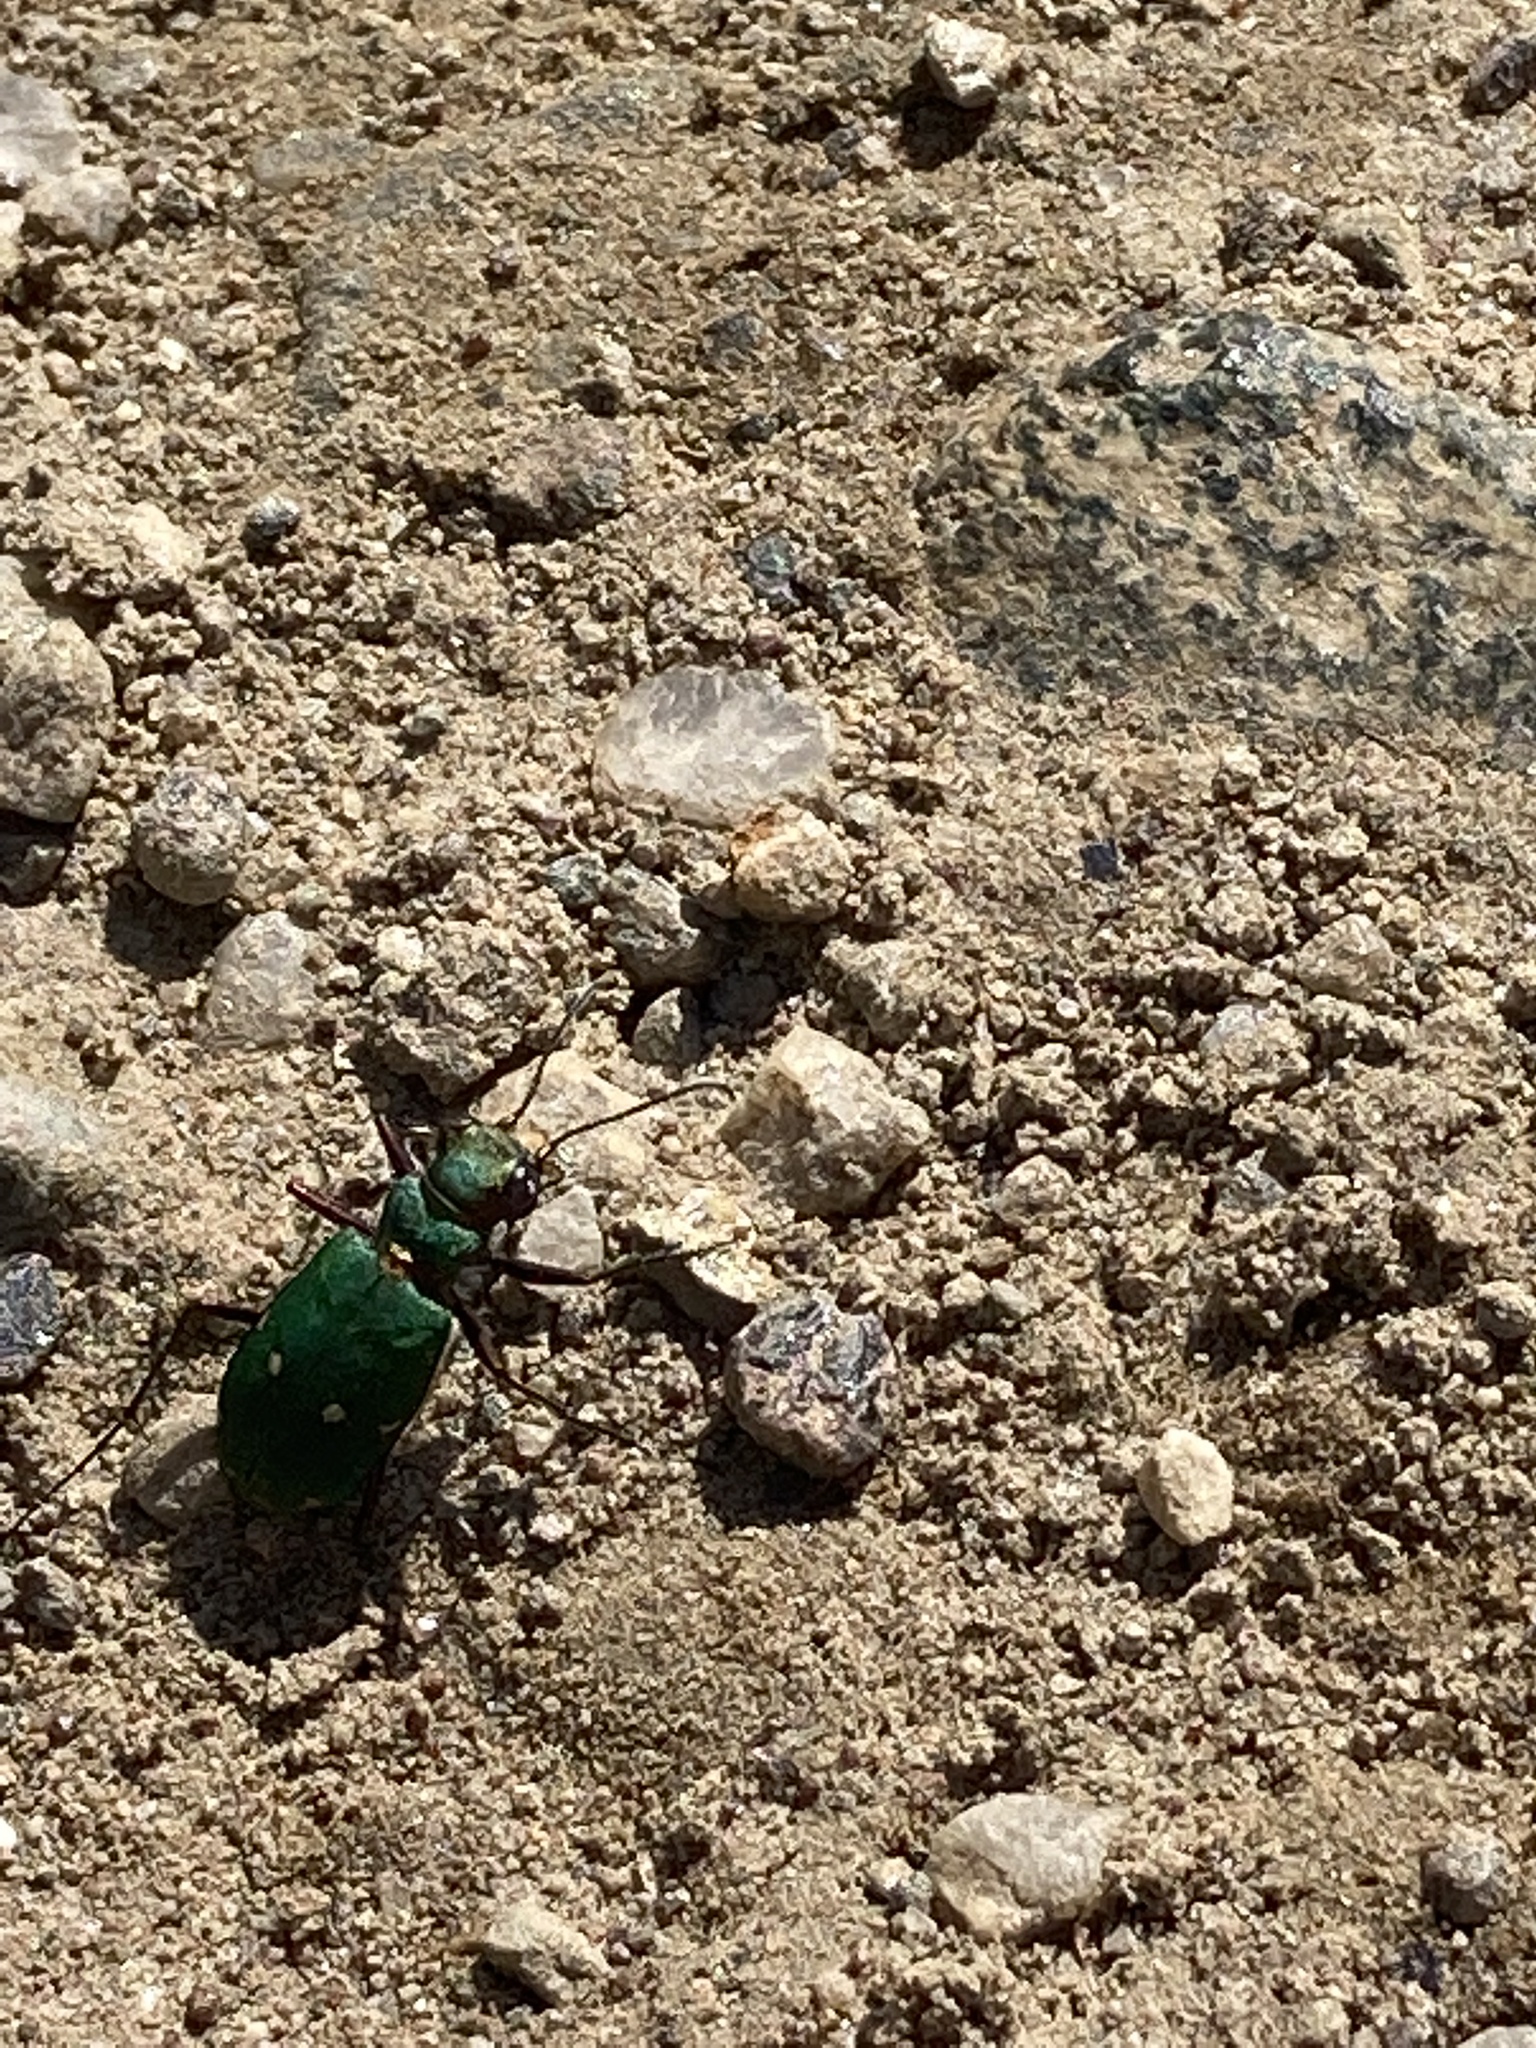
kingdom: Animalia
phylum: Arthropoda
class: Insecta
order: Coleoptera
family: Carabidae
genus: Cicindela
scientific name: Cicindela campestris
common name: Common tiger beetle
